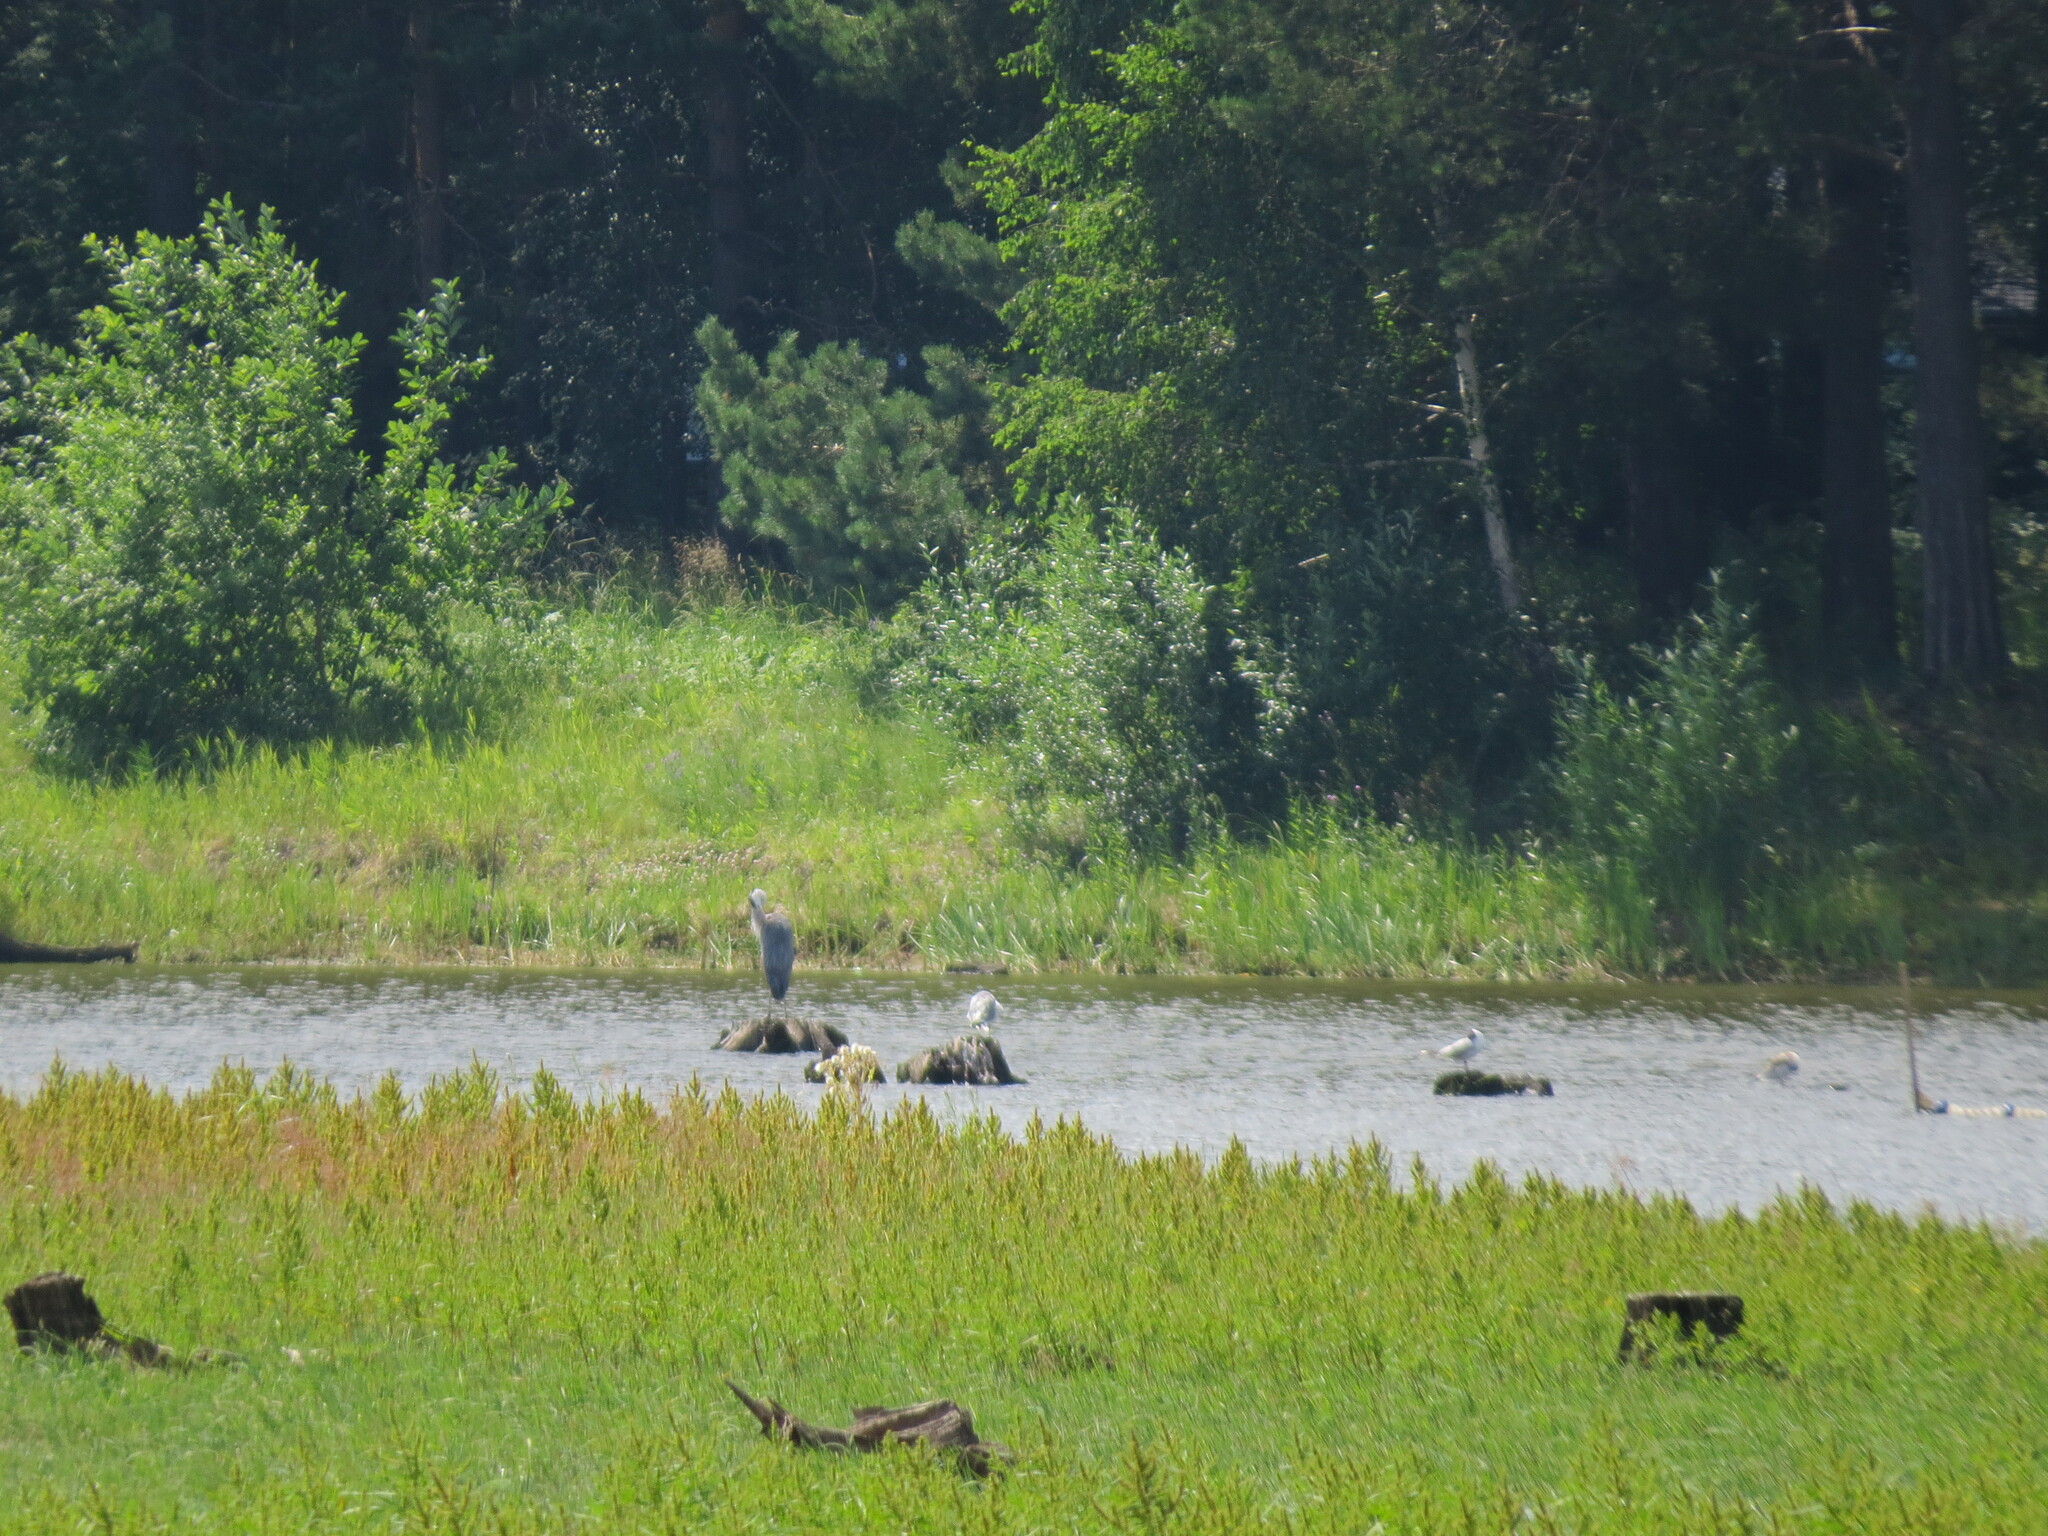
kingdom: Animalia
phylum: Chordata
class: Aves
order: Pelecaniformes
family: Ardeidae
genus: Ardea
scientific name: Ardea cinerea
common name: Grey heron
